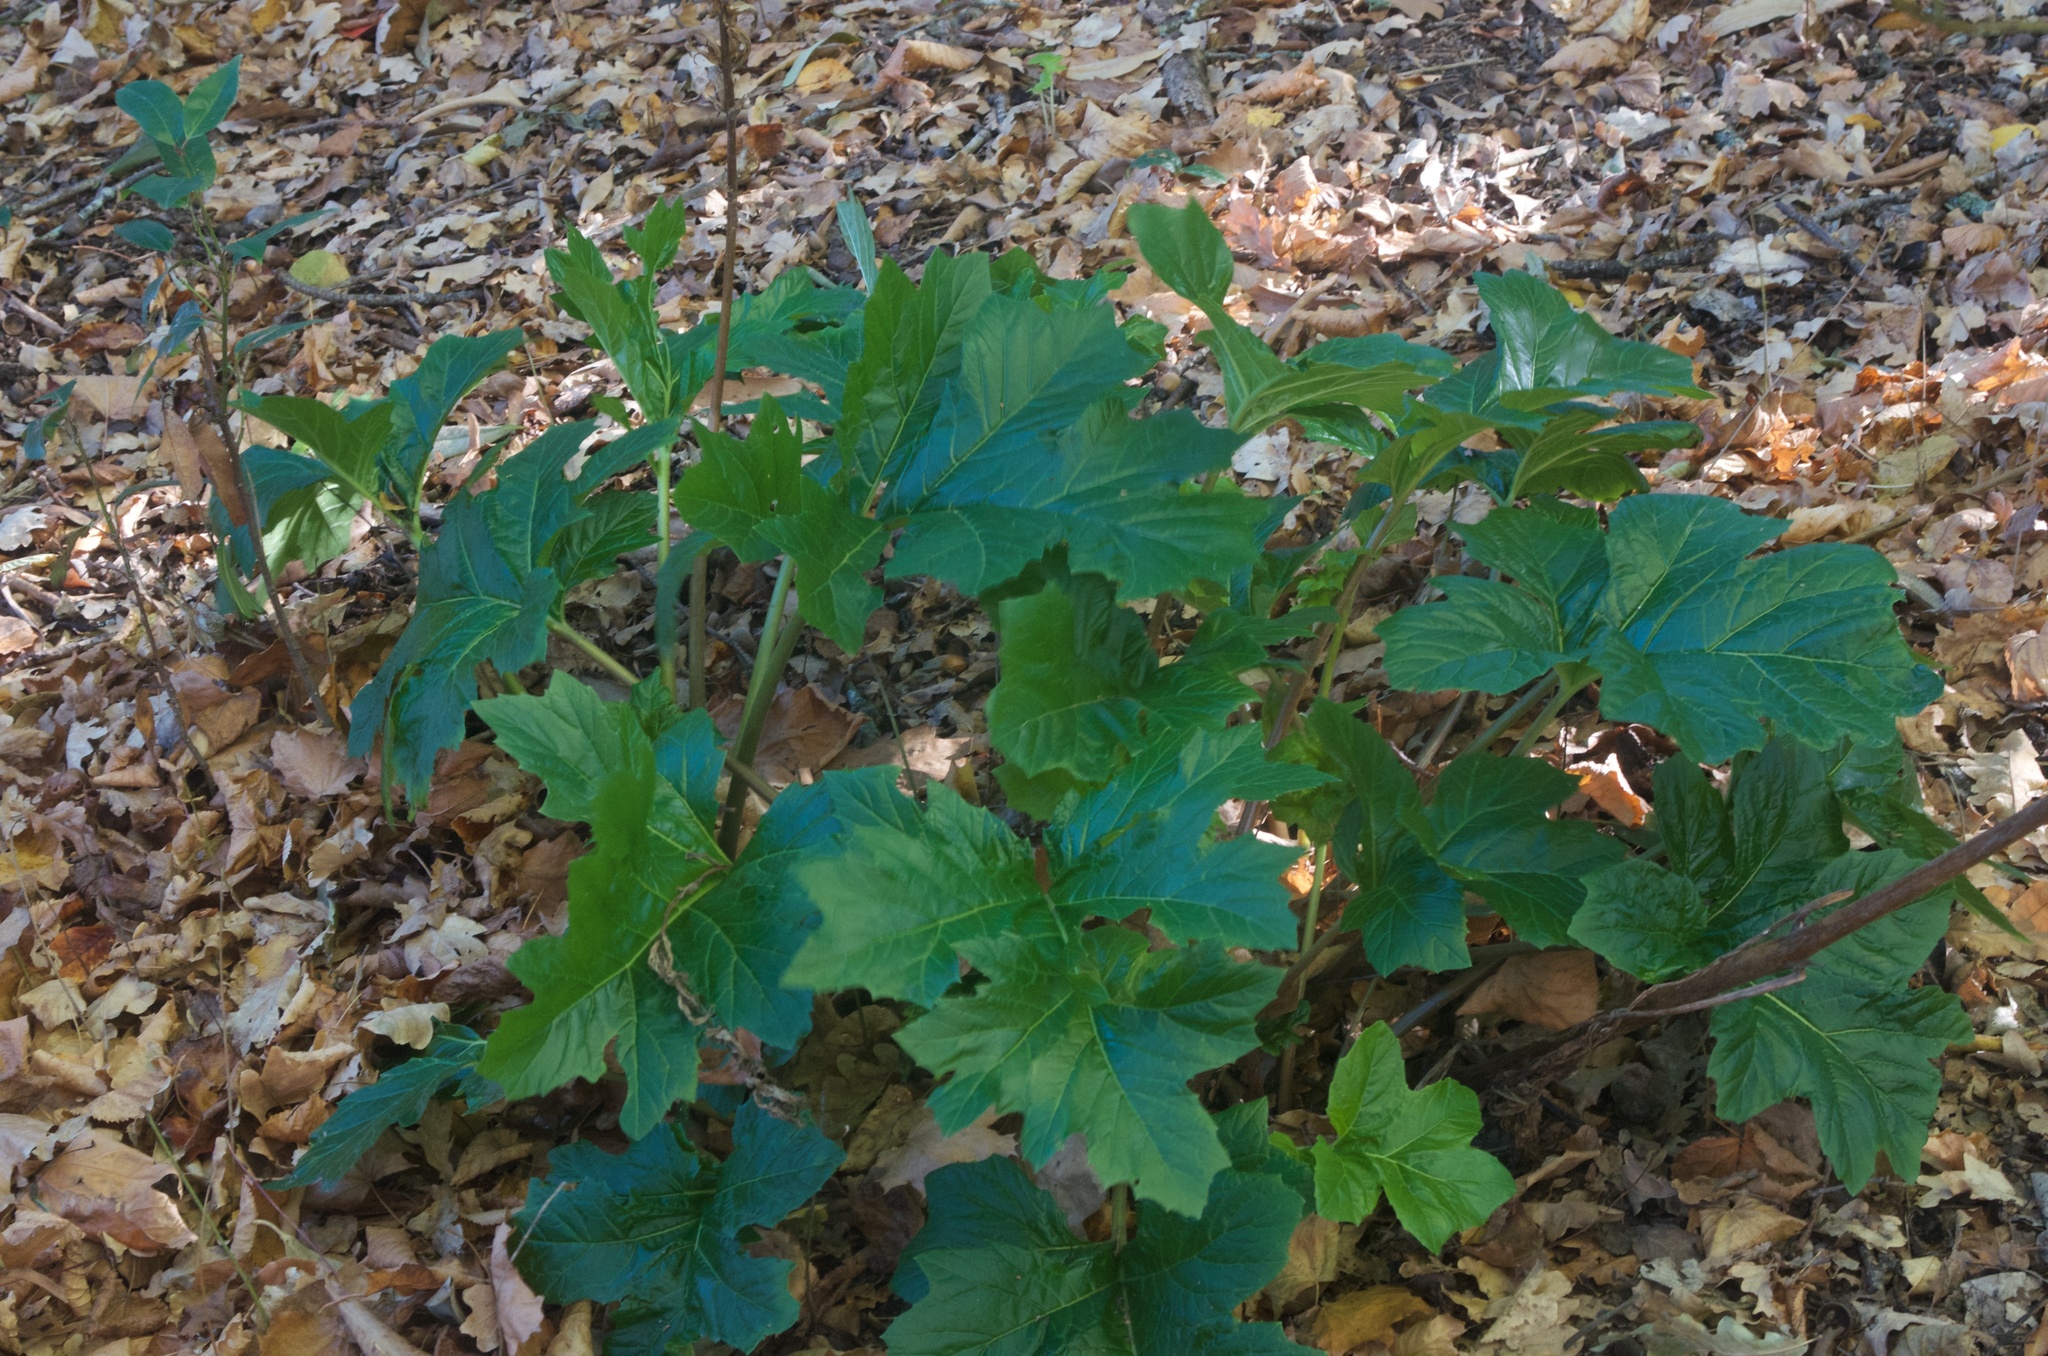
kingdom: Plantae
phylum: Tracheophyta
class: Magnoliopsida
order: Lamiales
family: Acanthaceae
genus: Acanthus
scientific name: Acanthus mollis
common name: Bear's-breech
